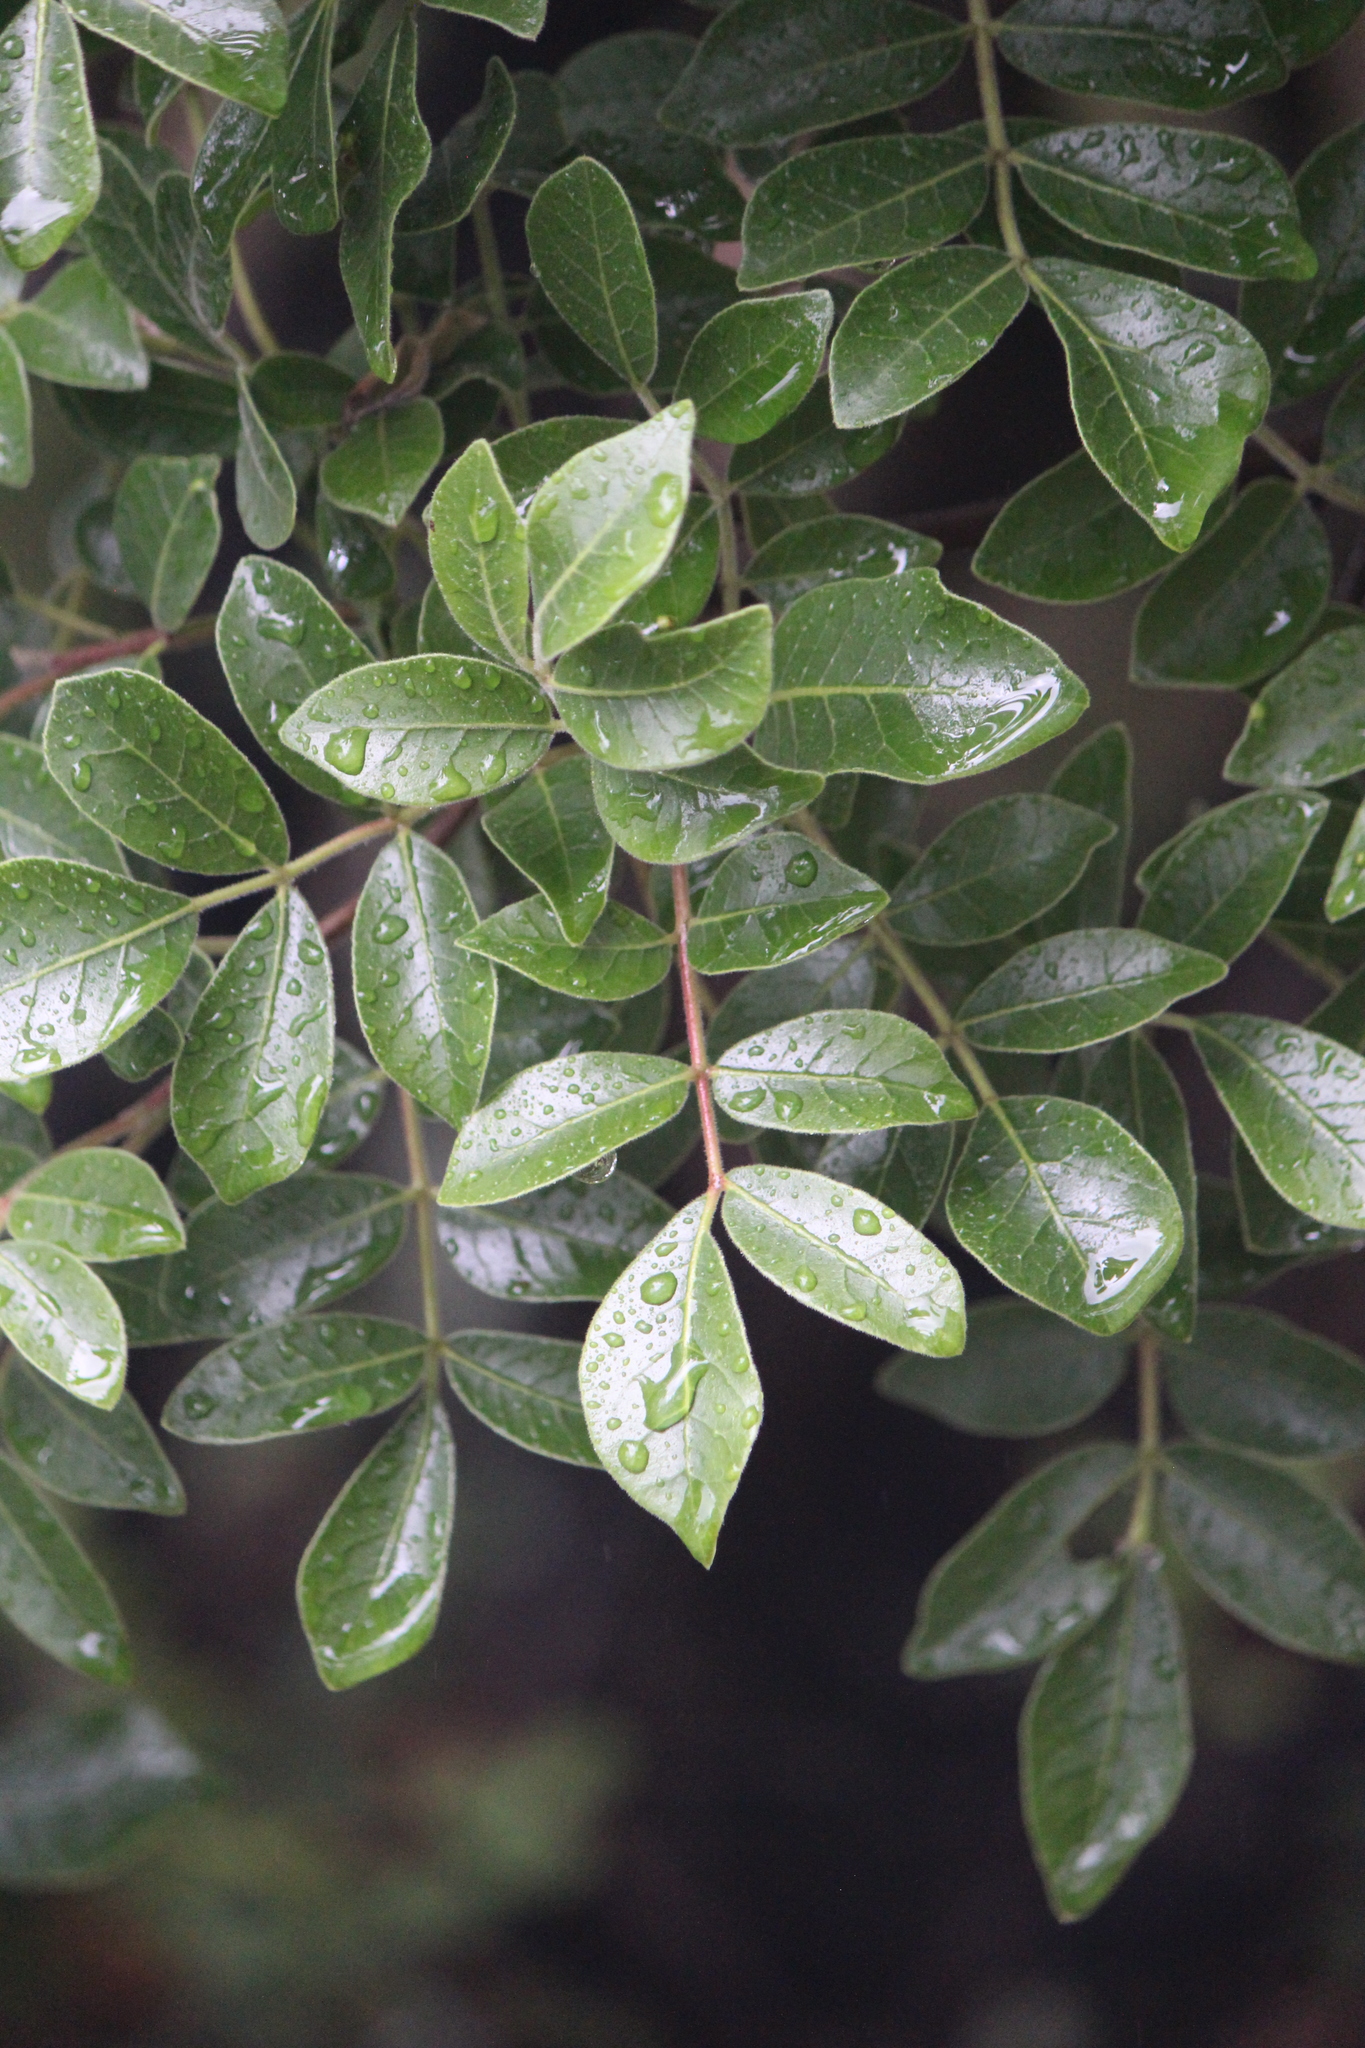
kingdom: Plantae
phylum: Tracheophyta
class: Magnoliopsida
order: Sapindales
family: Anacardiaceae
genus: Rhus
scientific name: Rhus virens
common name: Evergreen sumac
